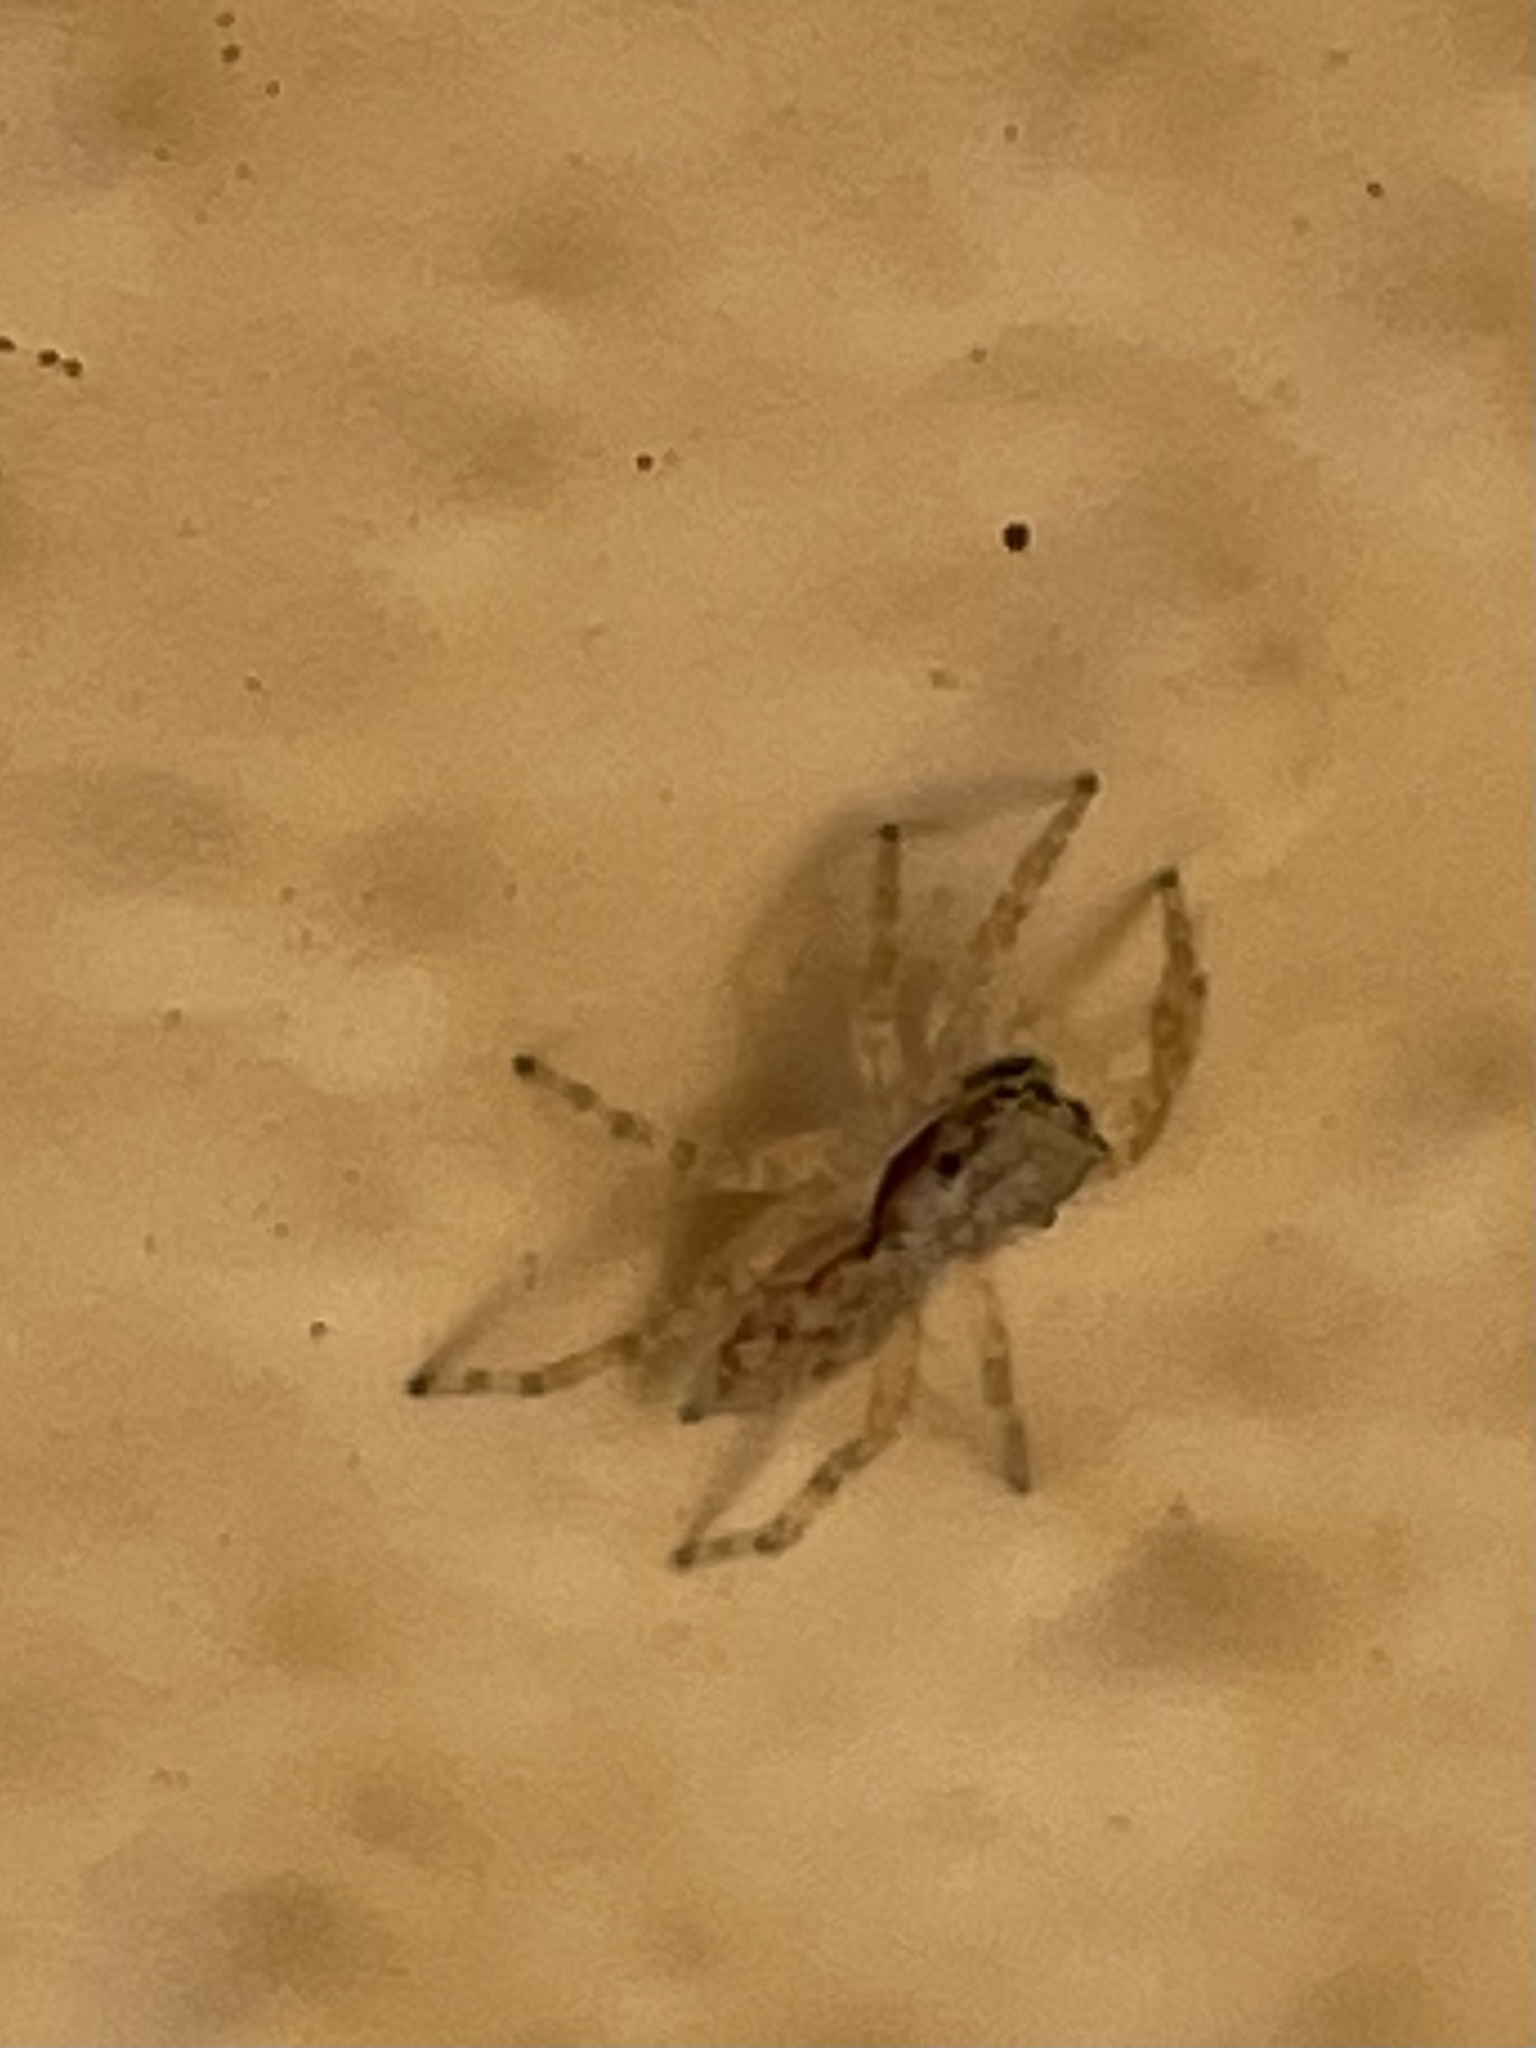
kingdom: Animalia
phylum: Arthropoda
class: Arachnida
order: Araneae
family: Salticidae
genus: Menemerus
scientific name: Menemerus bivittatus
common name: Gray wall jumper
